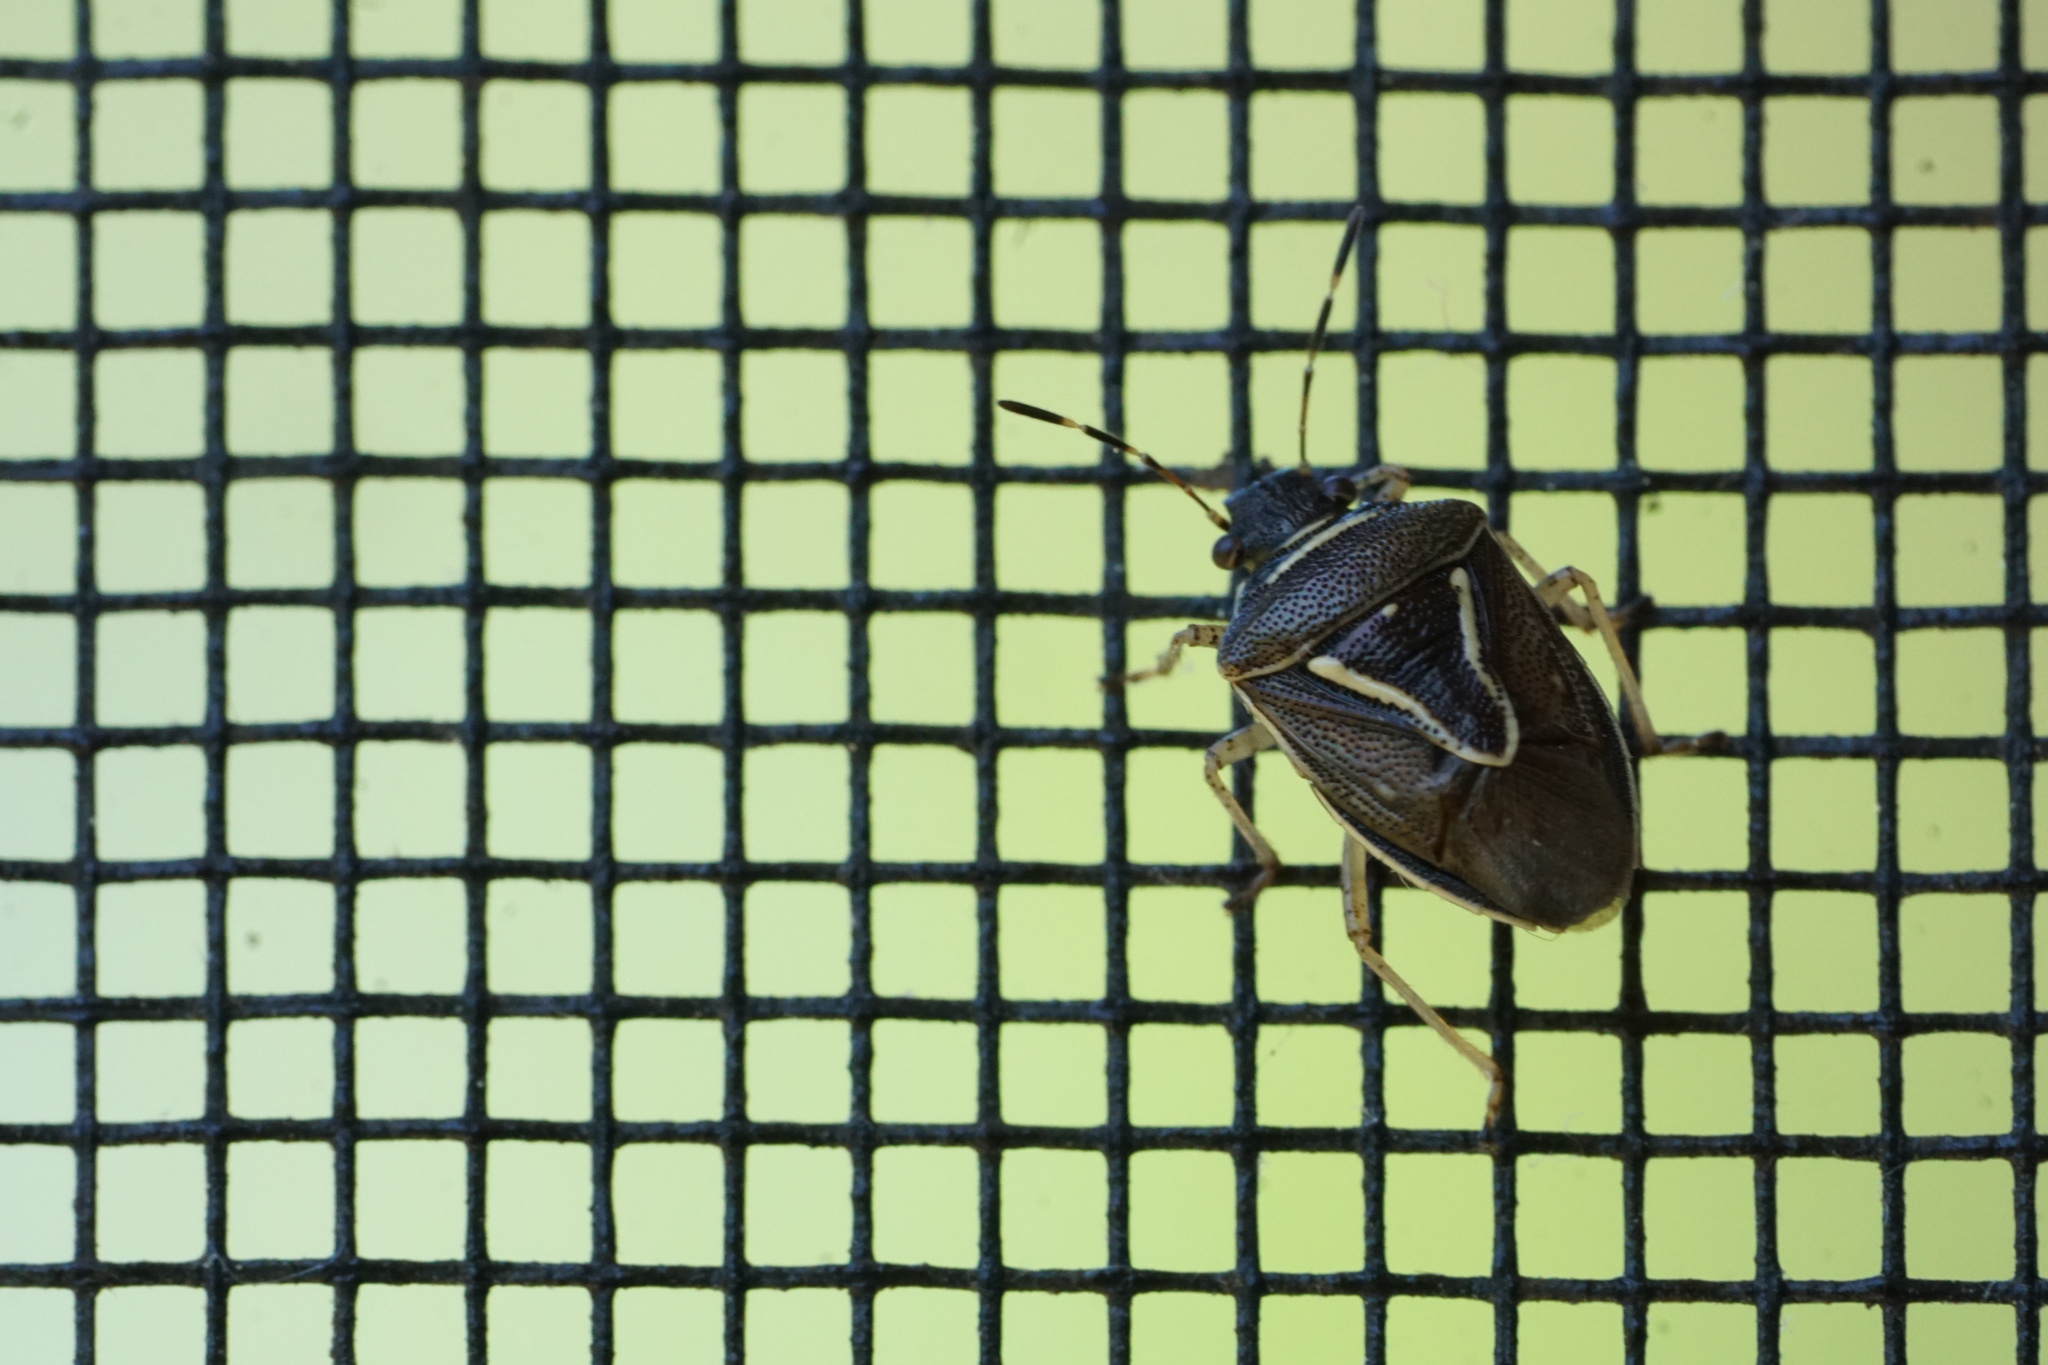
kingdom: Animalia
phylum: Arthropoda
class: Insecta
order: Hemiptera
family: Pentatomidae
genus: Mormidea
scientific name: Mormidea lugens
